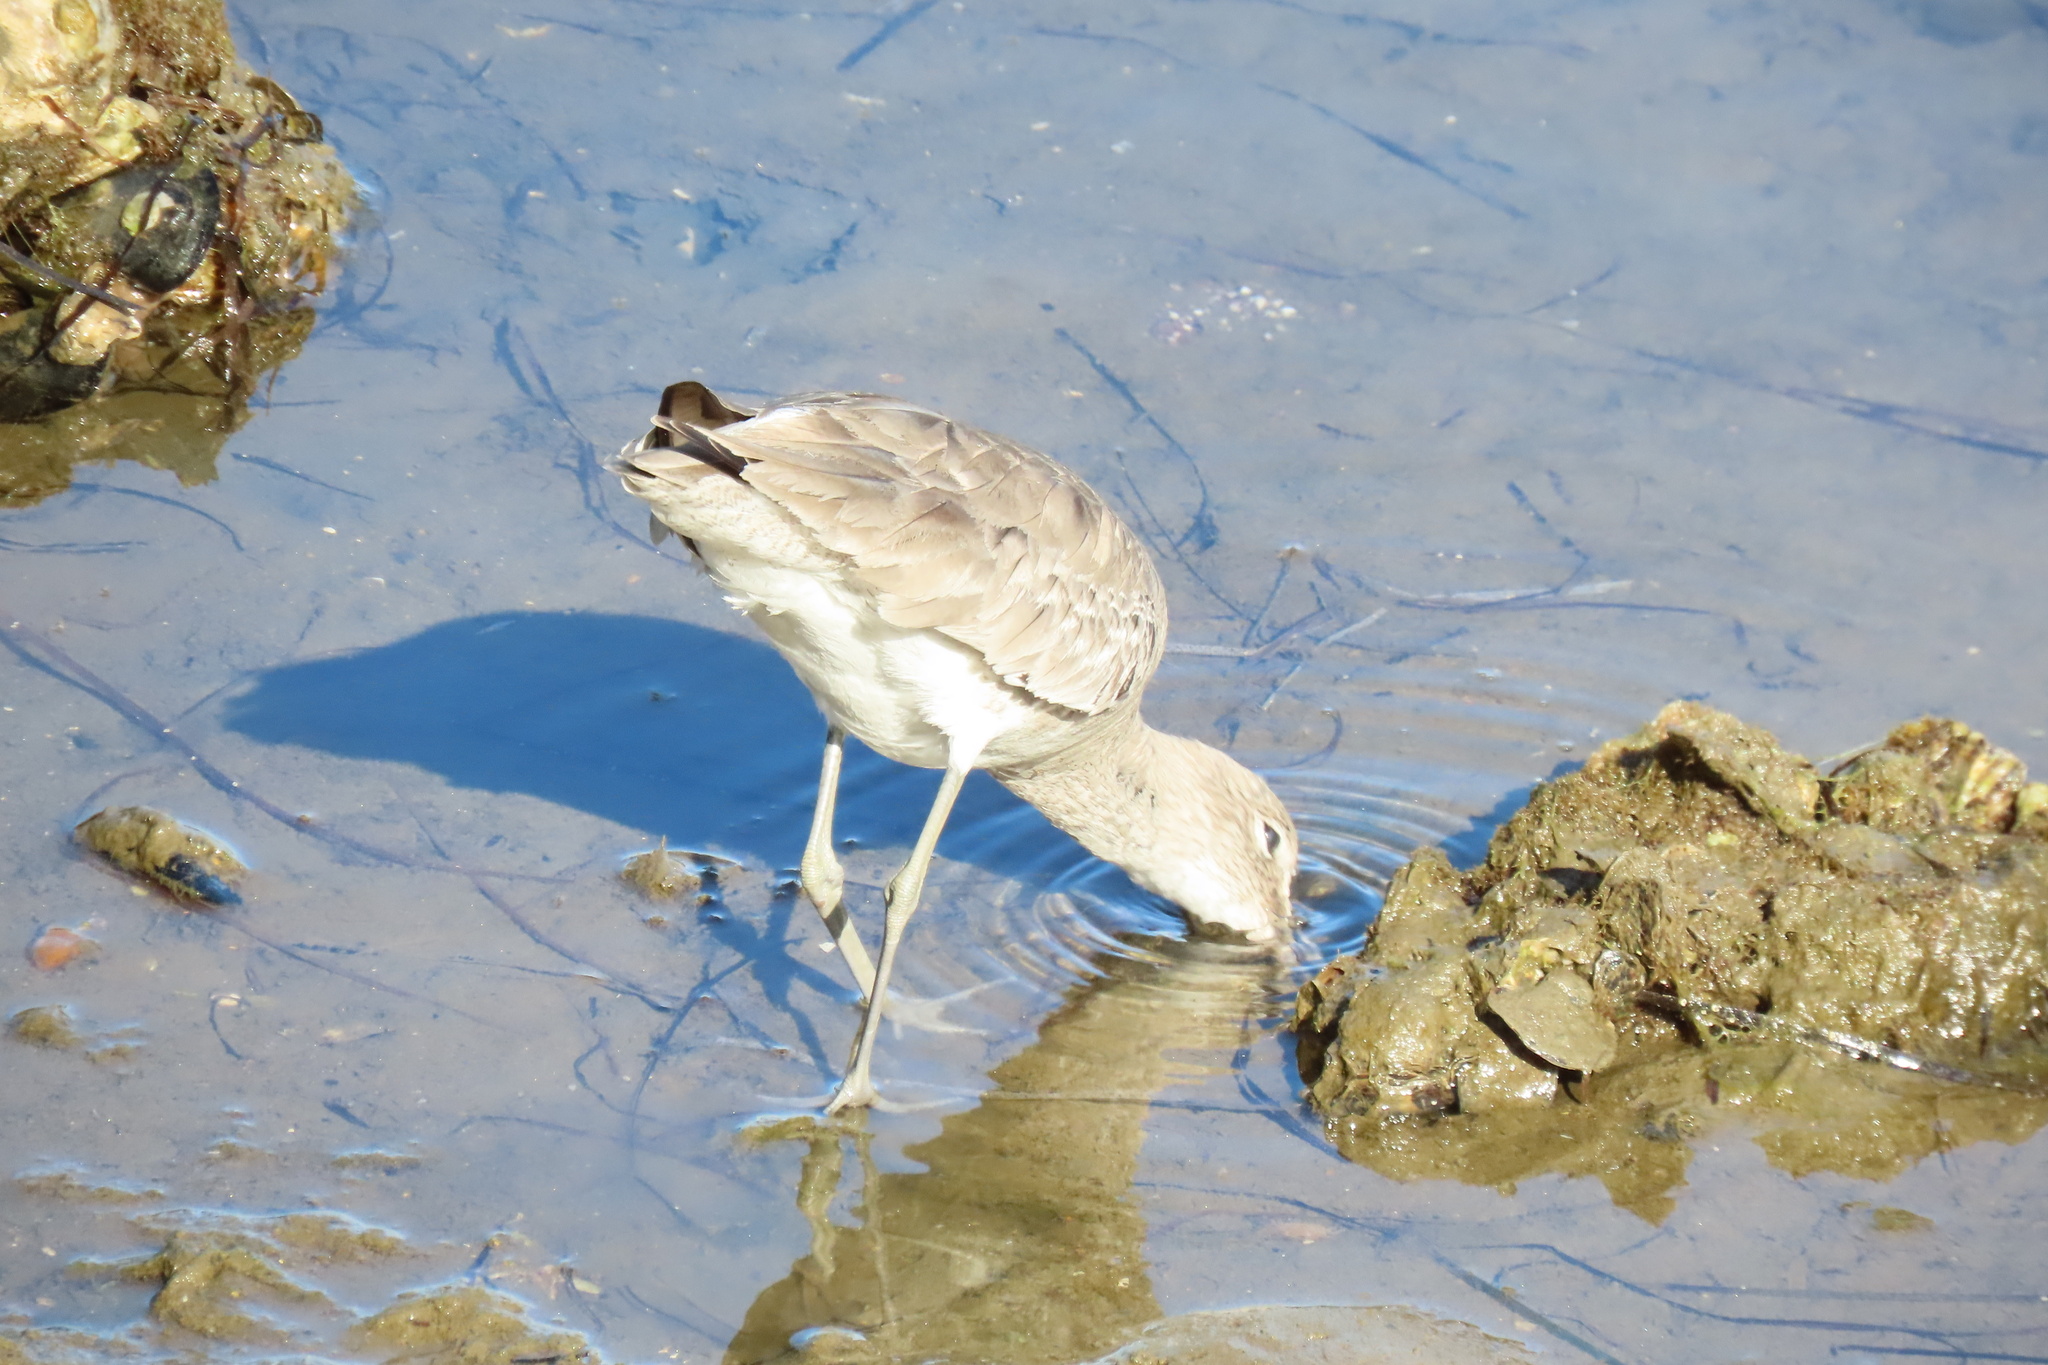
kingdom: Animalia
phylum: Chordata
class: Aves
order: Charadriiformes
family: Scolopacidae
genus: Tringa
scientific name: Tringa semipalmata
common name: Willet
